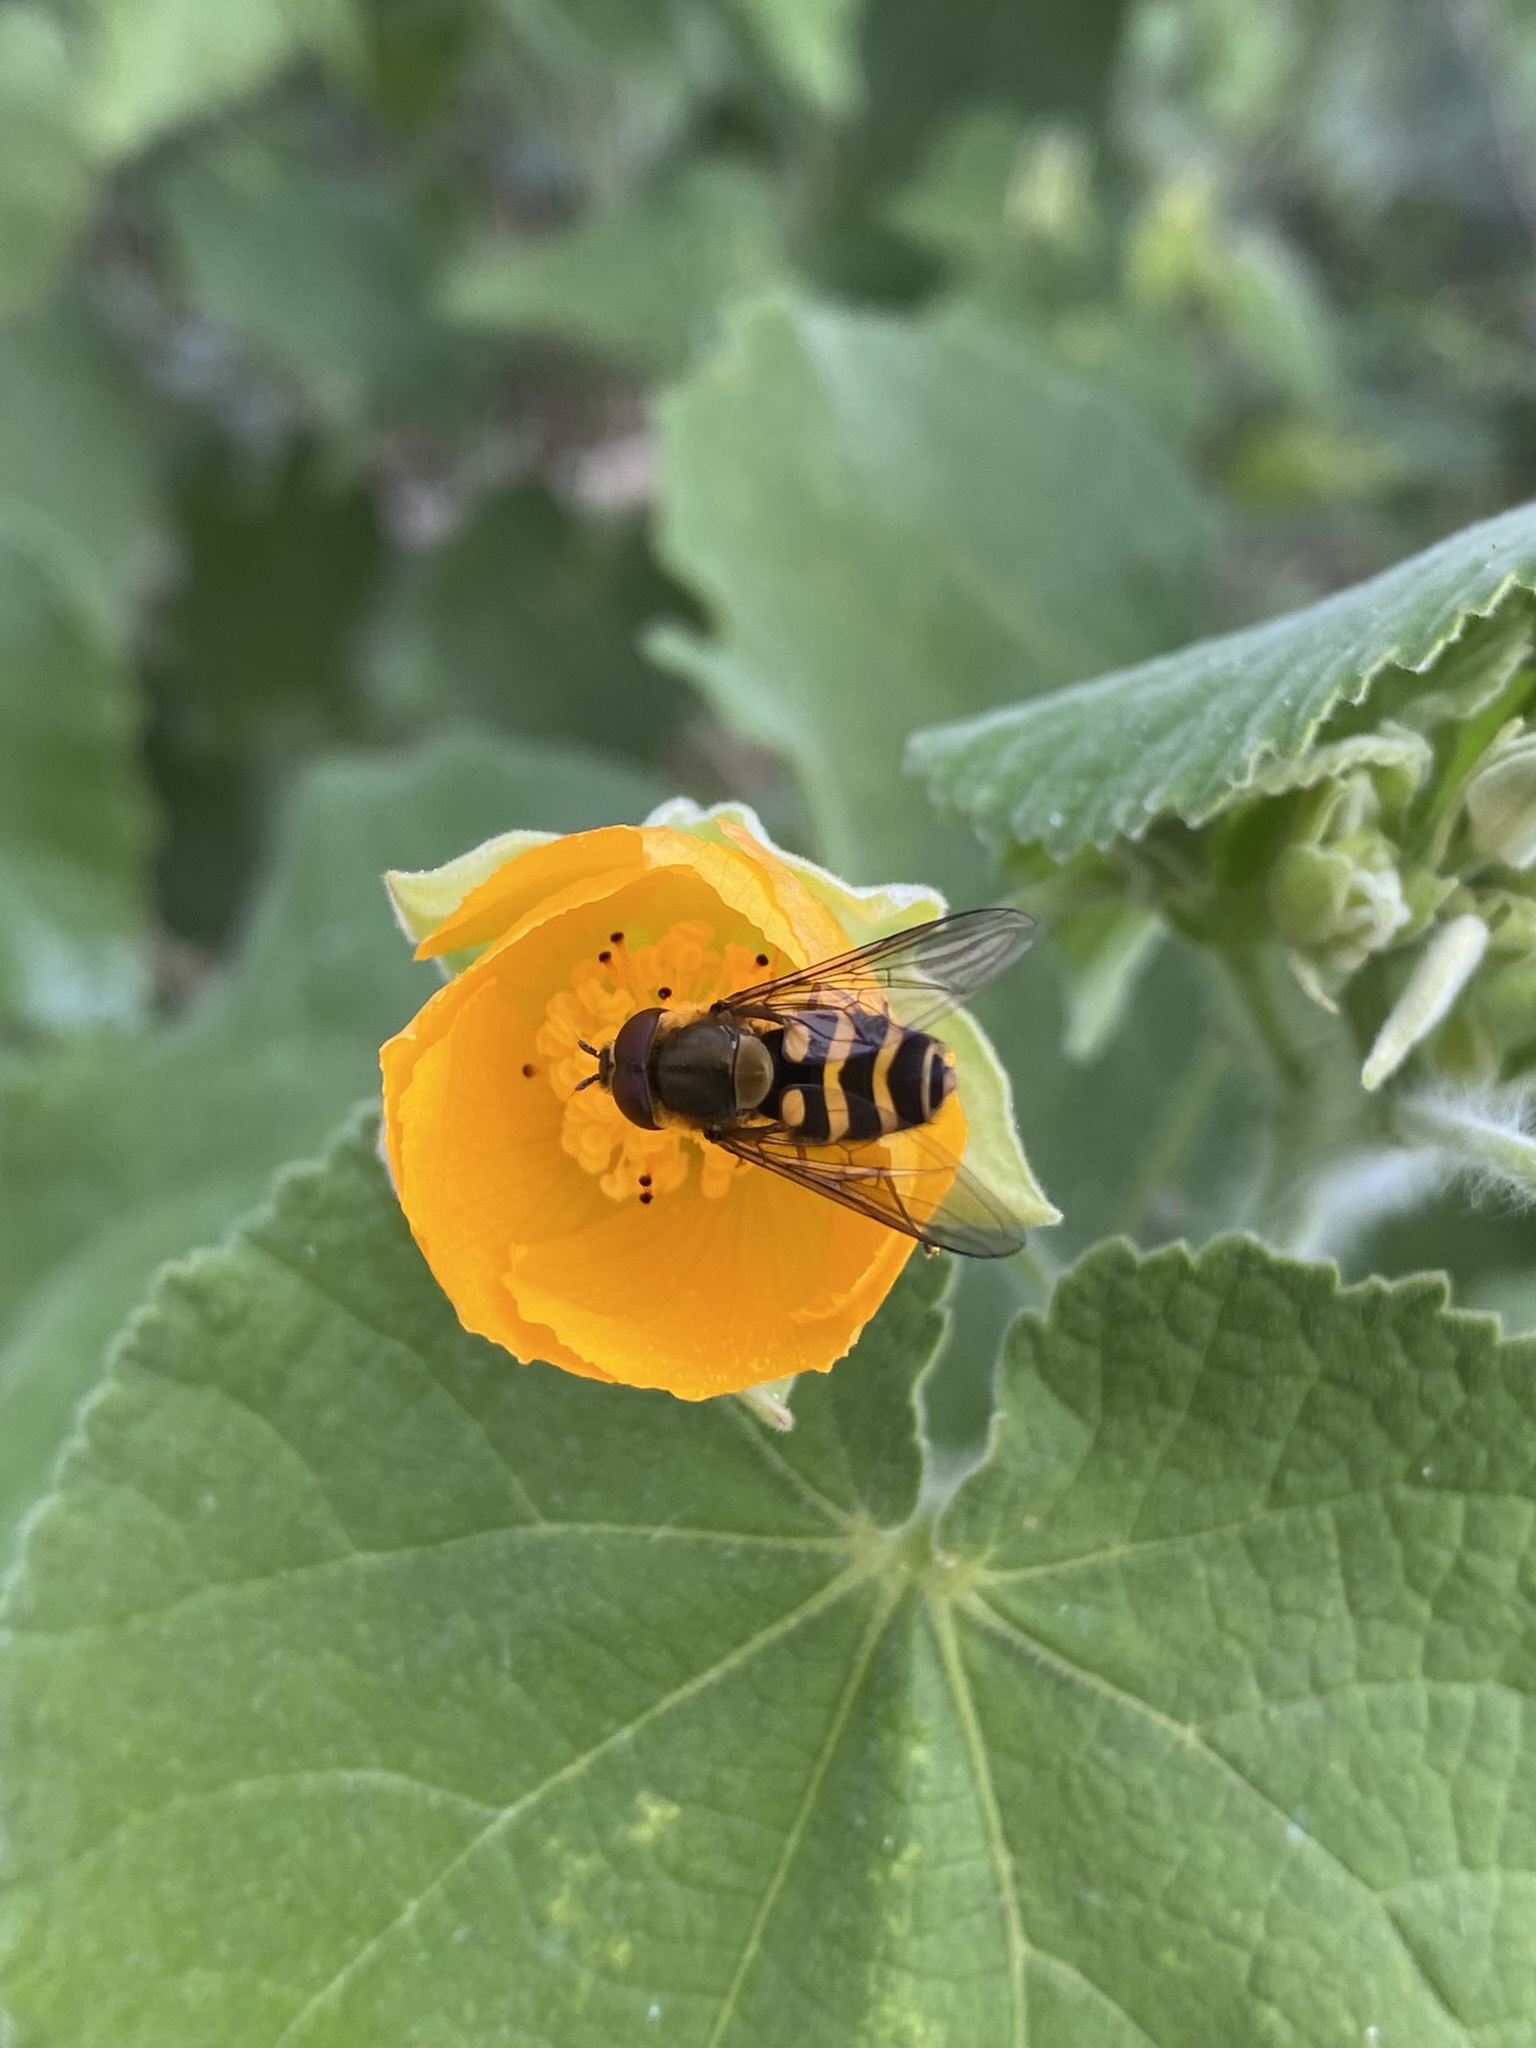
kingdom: Plantae
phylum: Tracheophyta
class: Magnoliopsida
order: Malvales
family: Malvaceae
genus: Abutilon
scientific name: Abutilon grandifolium
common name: Hairy abutilon
